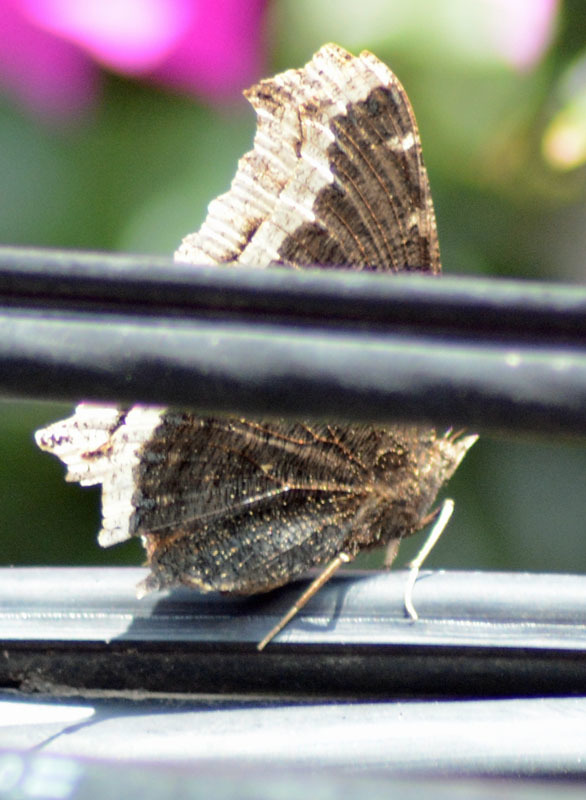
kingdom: Animalia
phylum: Arthropoda
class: Insecta
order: Lepidoptera
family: Nymphalidae
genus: Nymphalis
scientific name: Nymphalis antiopa
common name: Camberwell beauty
